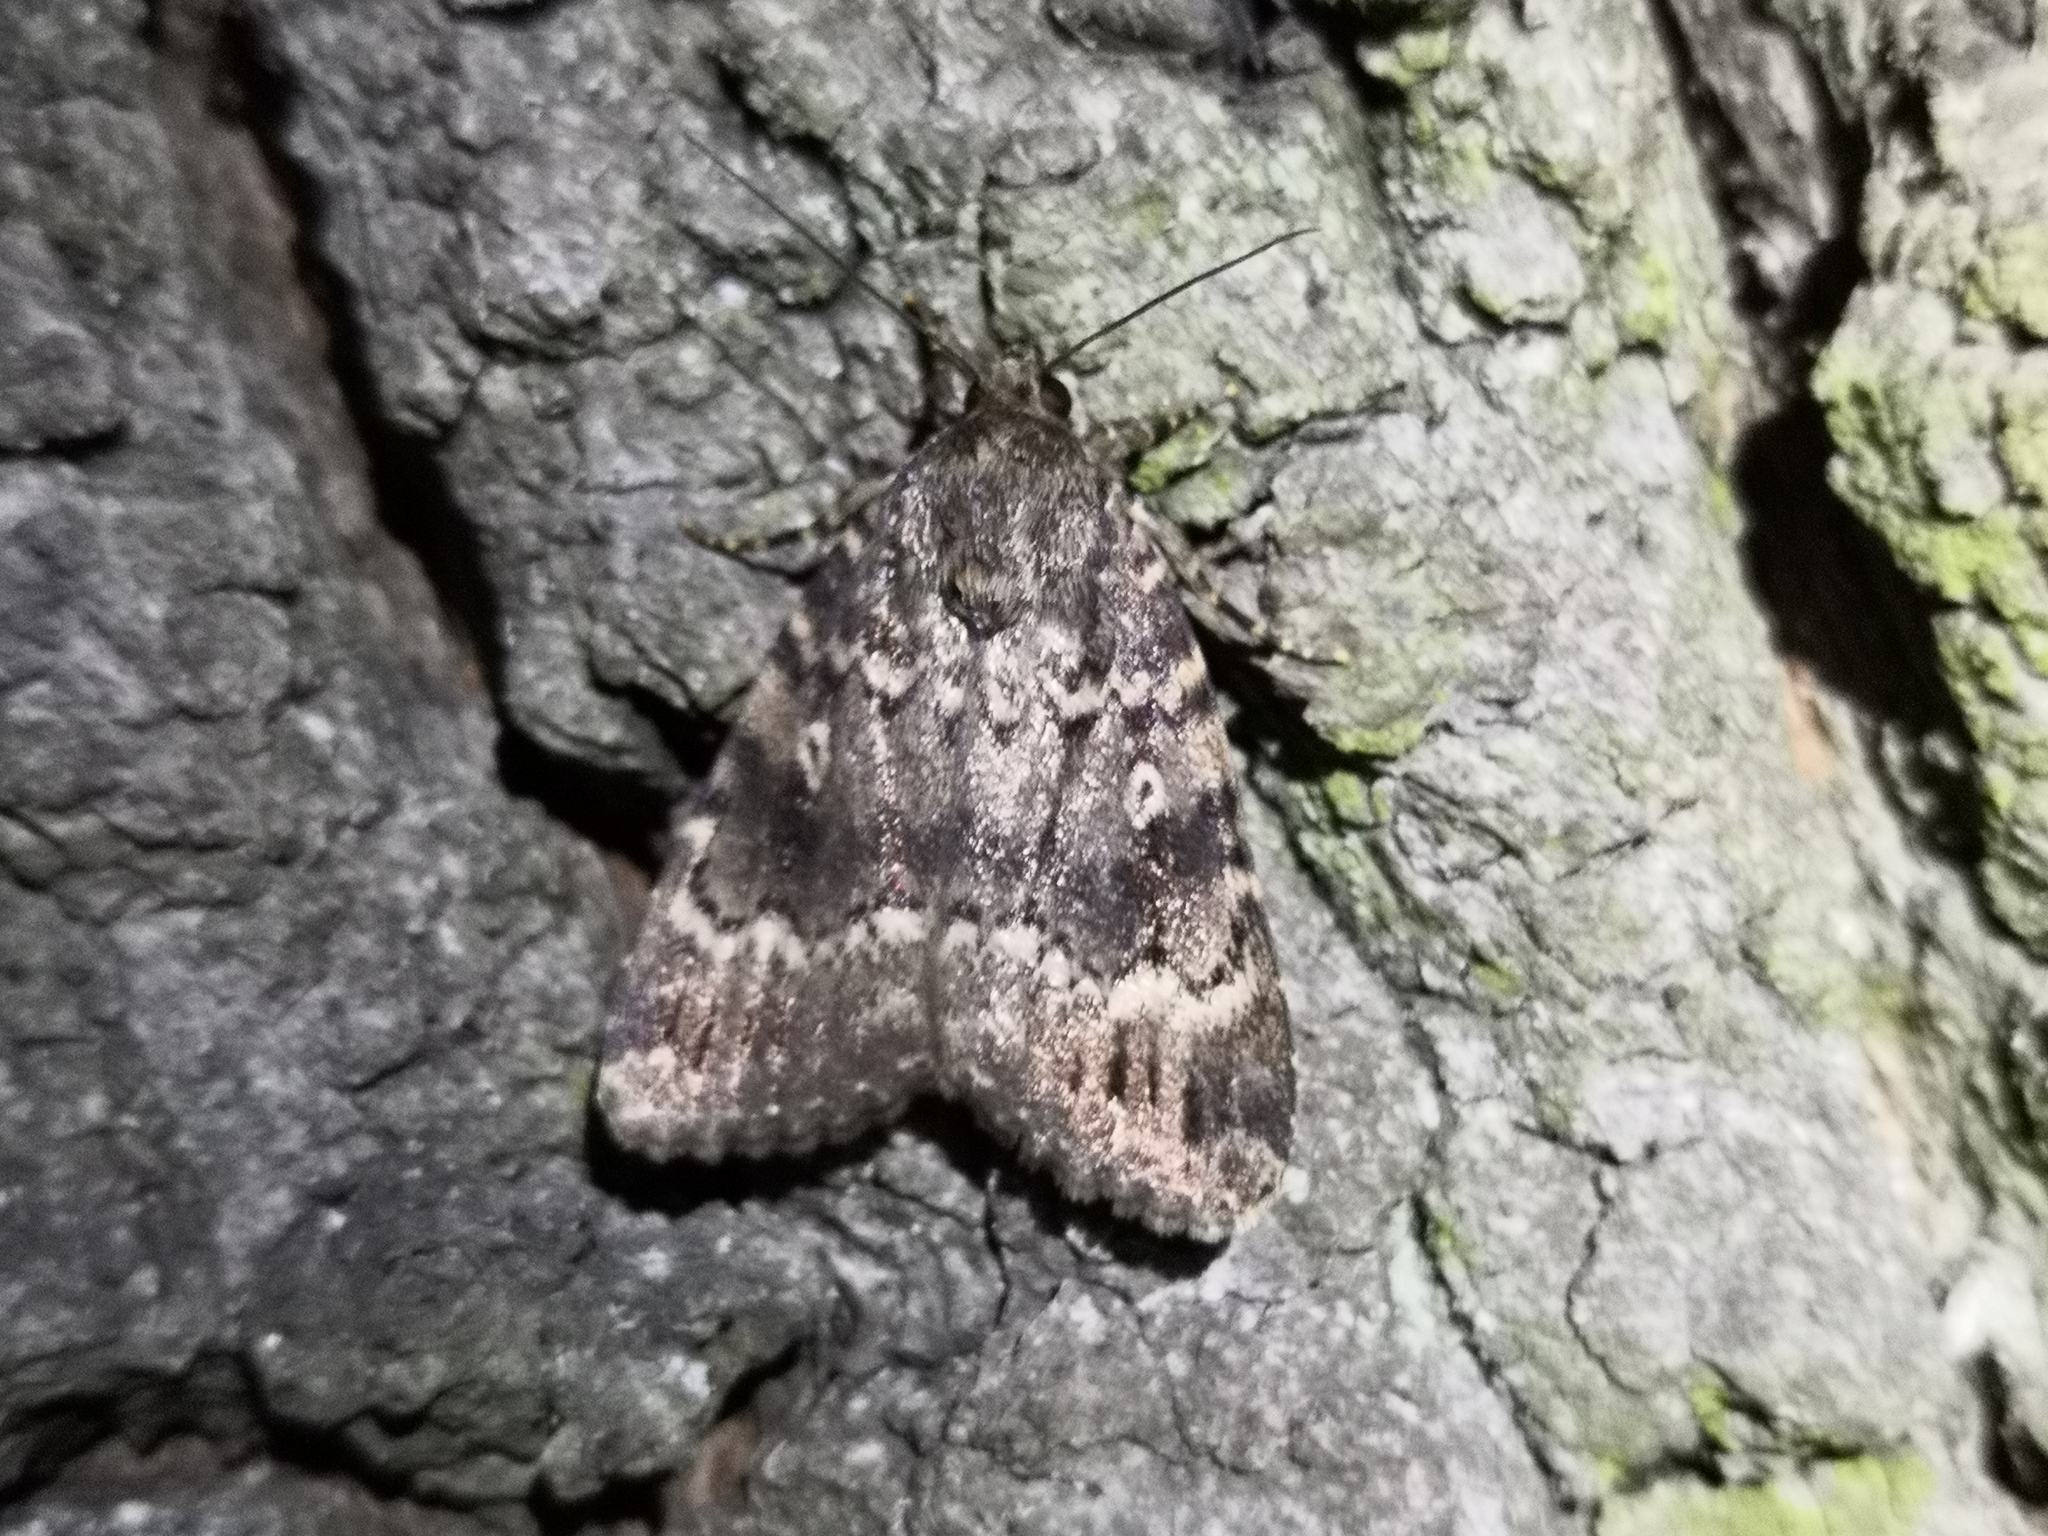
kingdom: Animalia
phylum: Arthropoda
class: Insecta
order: Lepidoptera
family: Noctuidae
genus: Amphipyra
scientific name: Amphipyra berbera
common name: Svensson's copper underwing
